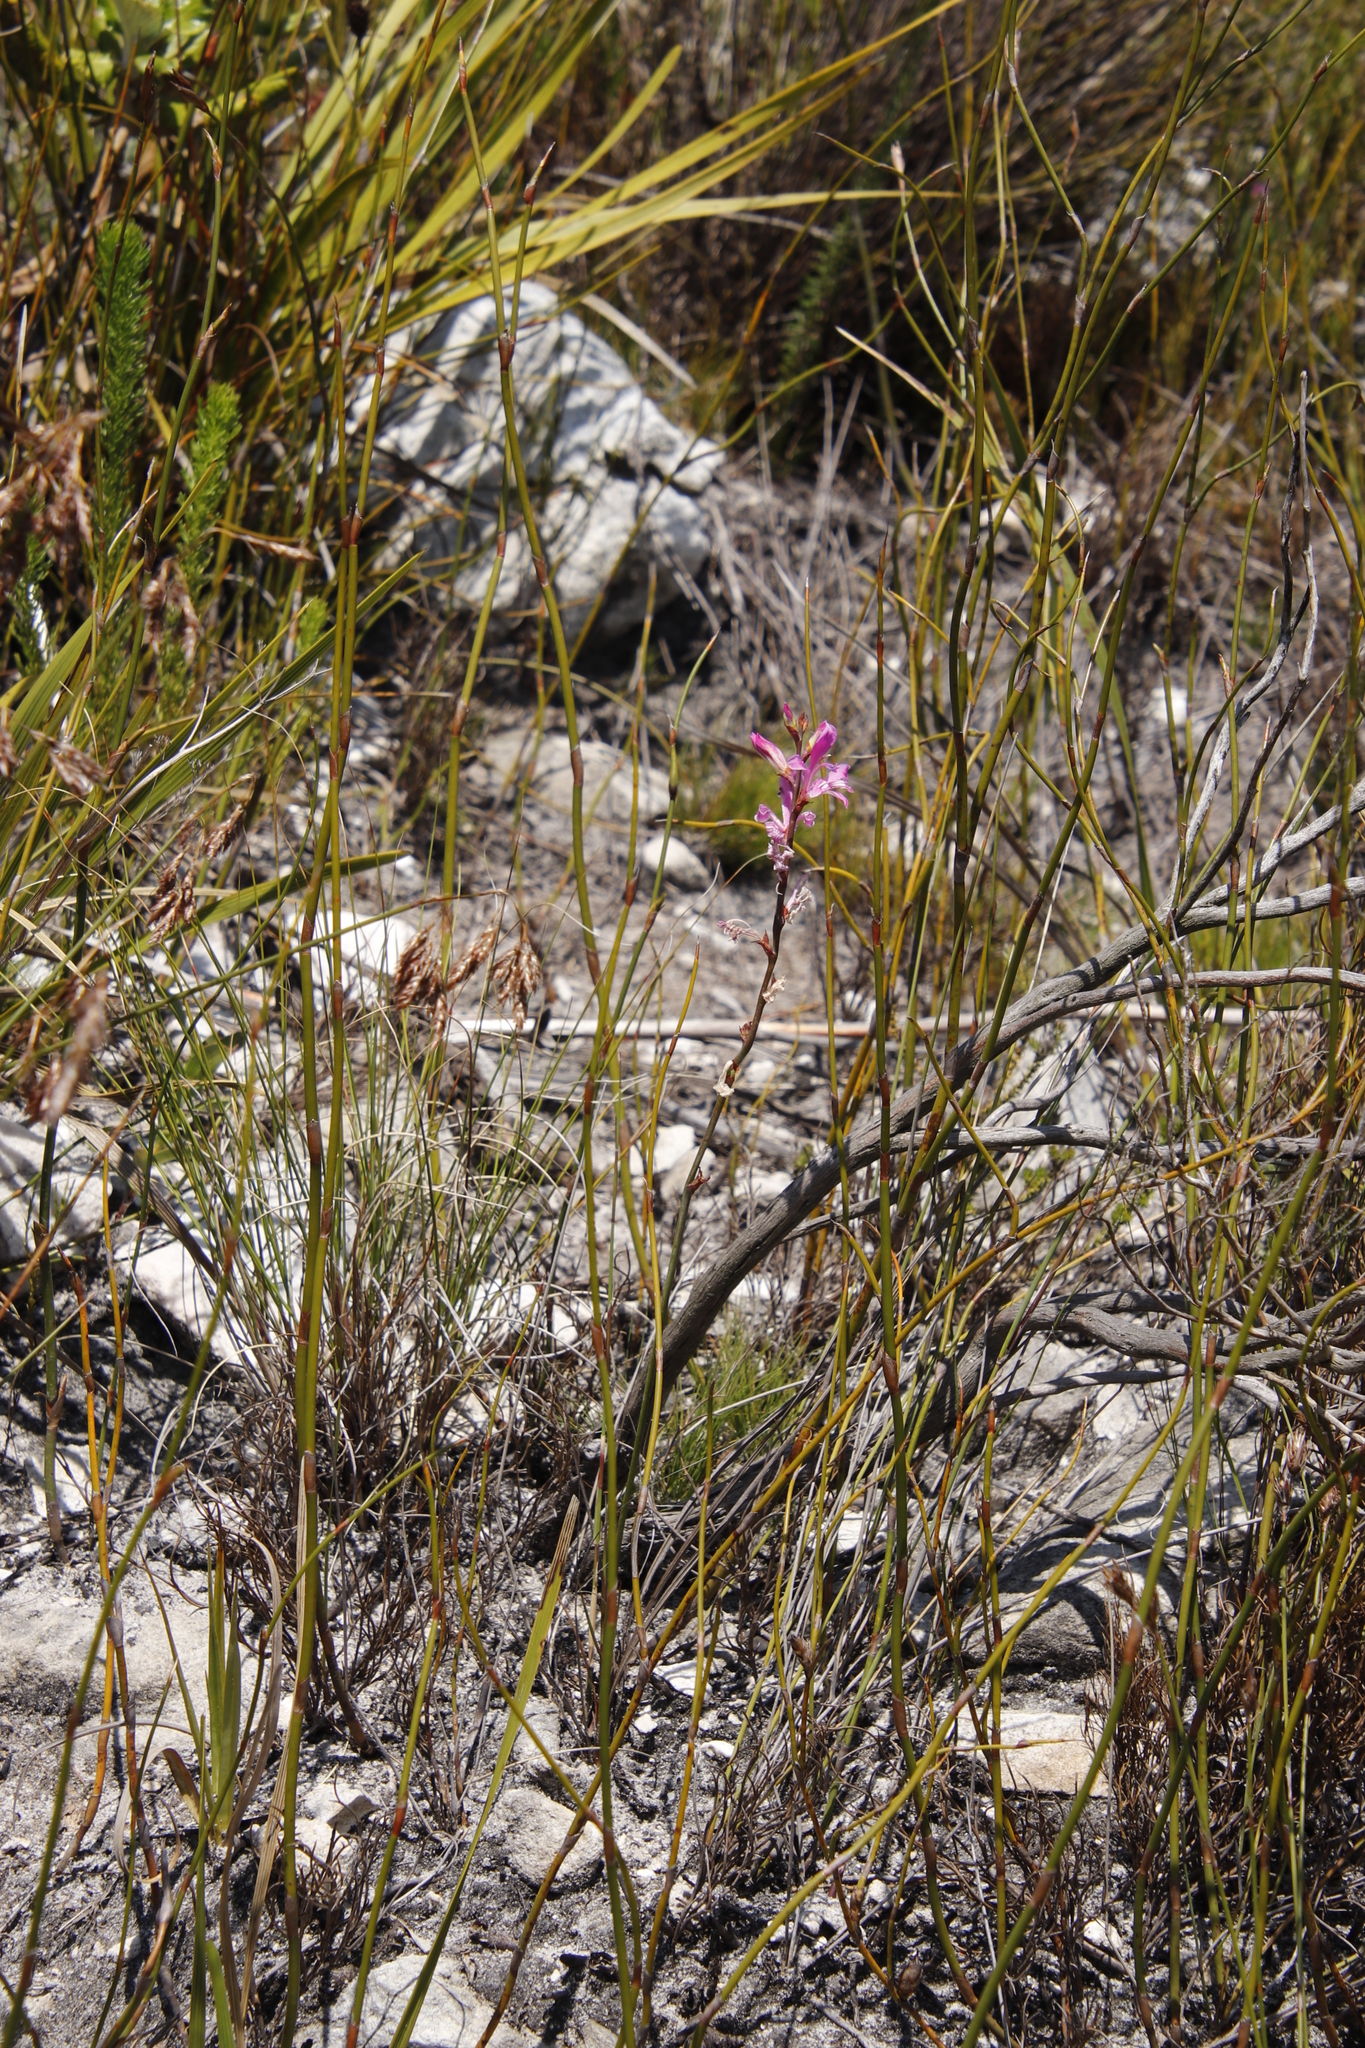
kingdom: Plantae
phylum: Tracheophyta
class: Liliopsida
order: Asparagales
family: Iridaceae
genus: Tritoniopsis
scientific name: Tritoniopsis ramosa
